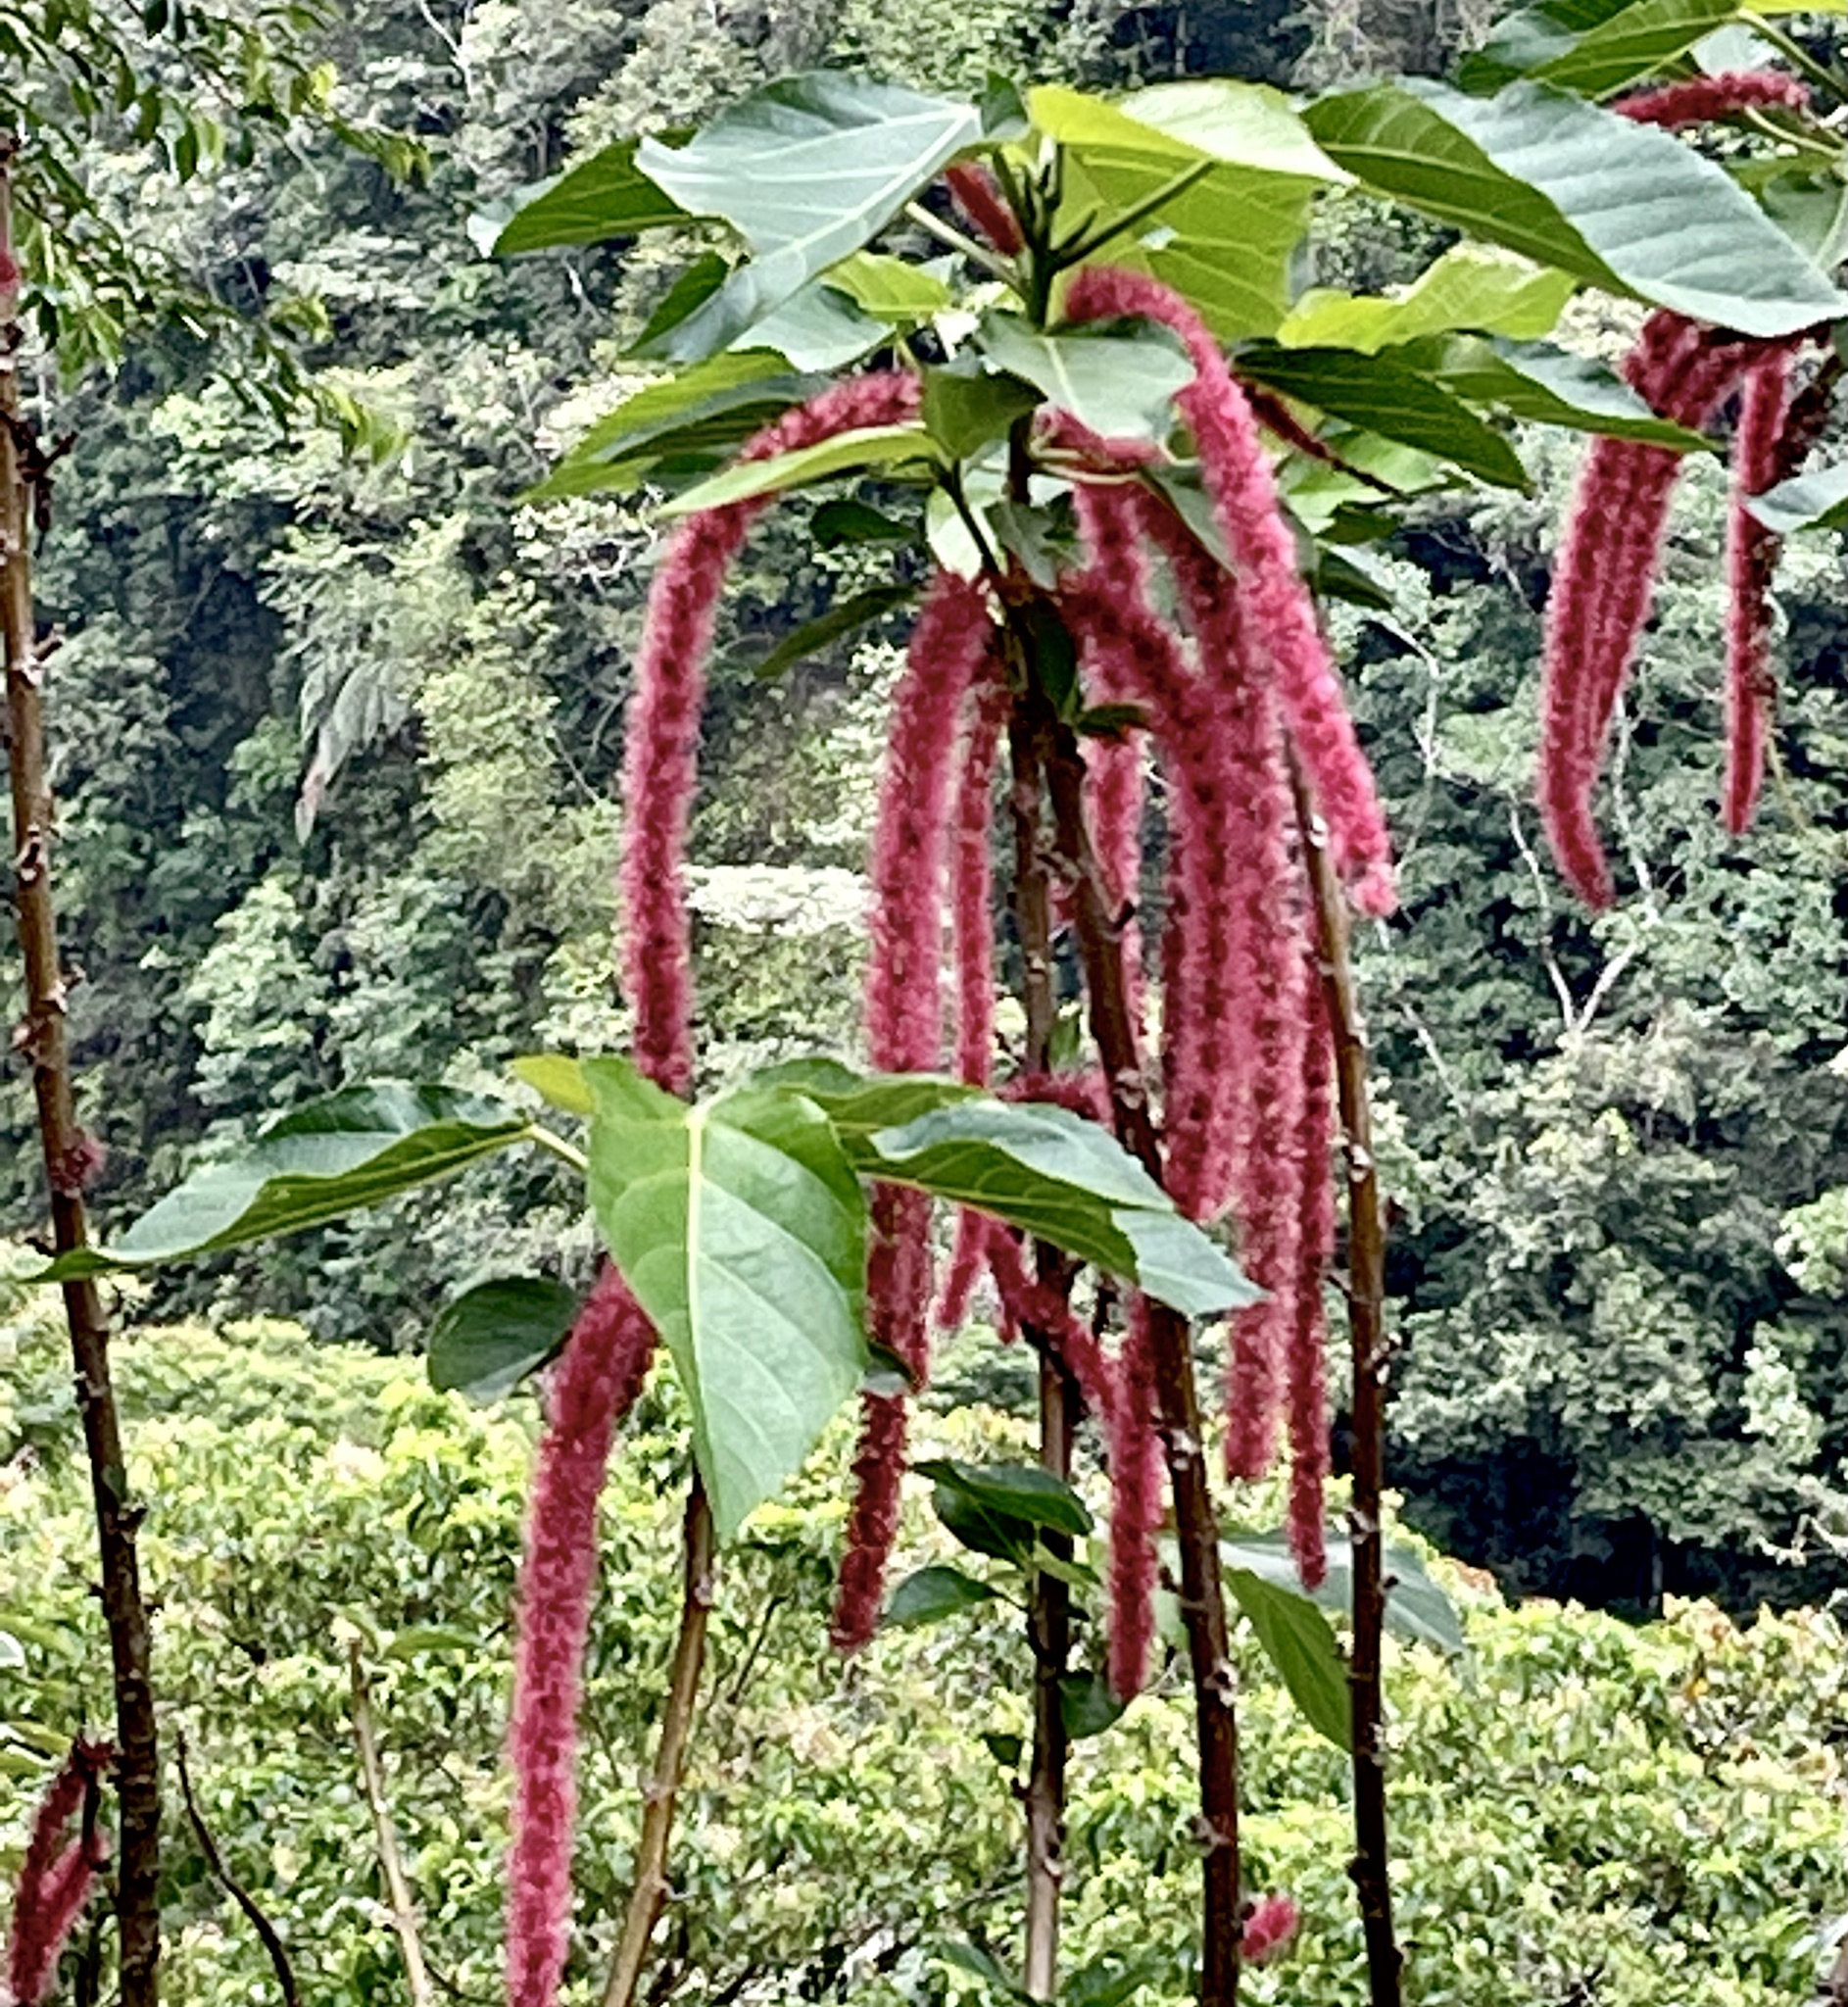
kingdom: Plantae
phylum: Tracheophyta
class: Magnoliopsida
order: Malpighiales
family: Euphorbiaceae
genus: Acalypha
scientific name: Acalypha hispida
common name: Chenilleplant
